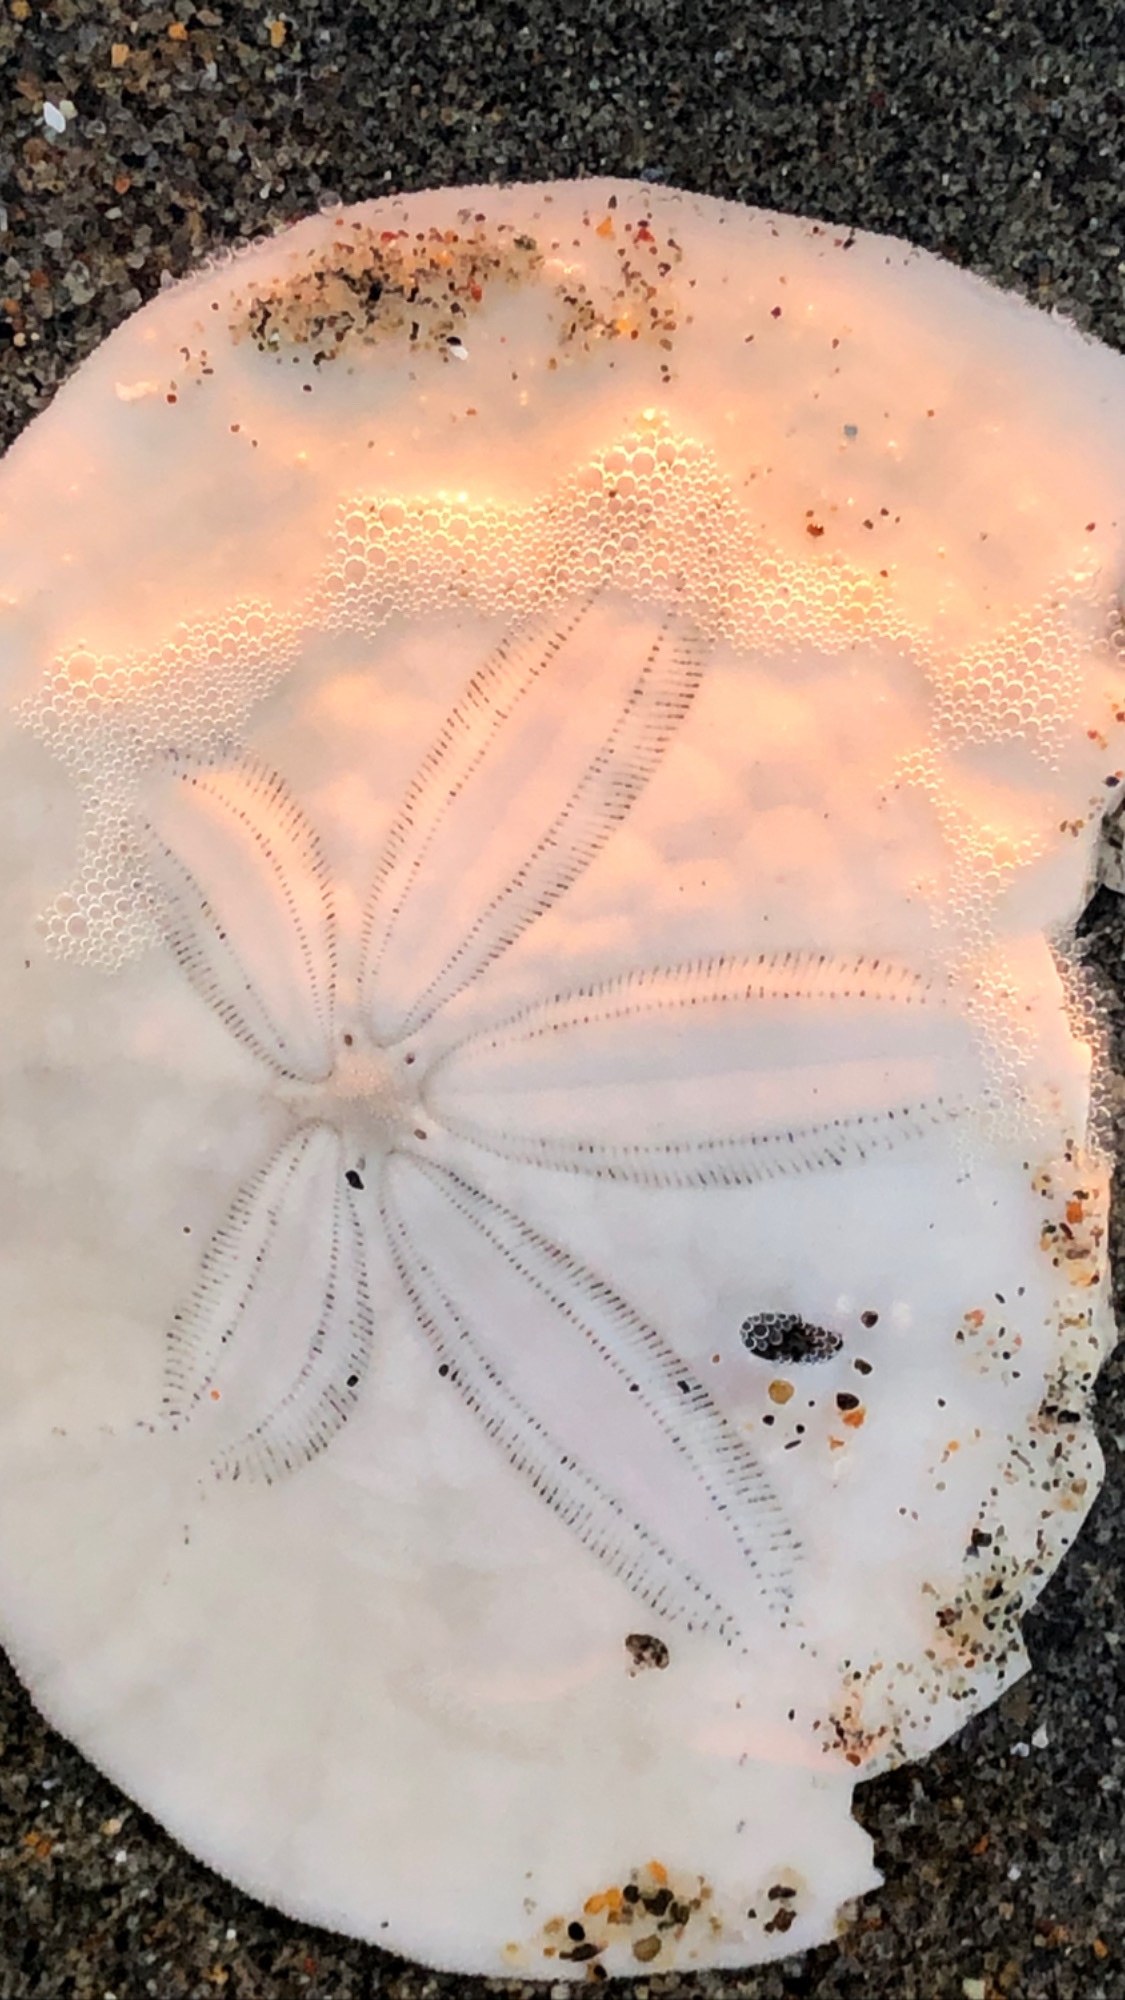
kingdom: Animalia
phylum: Echinodermata
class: Echinoidea
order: Echinolampadacea
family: Dendrasteridae
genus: Dendraster
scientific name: Dendraster excentricus
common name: Eccentric sand dollar sea urchin
